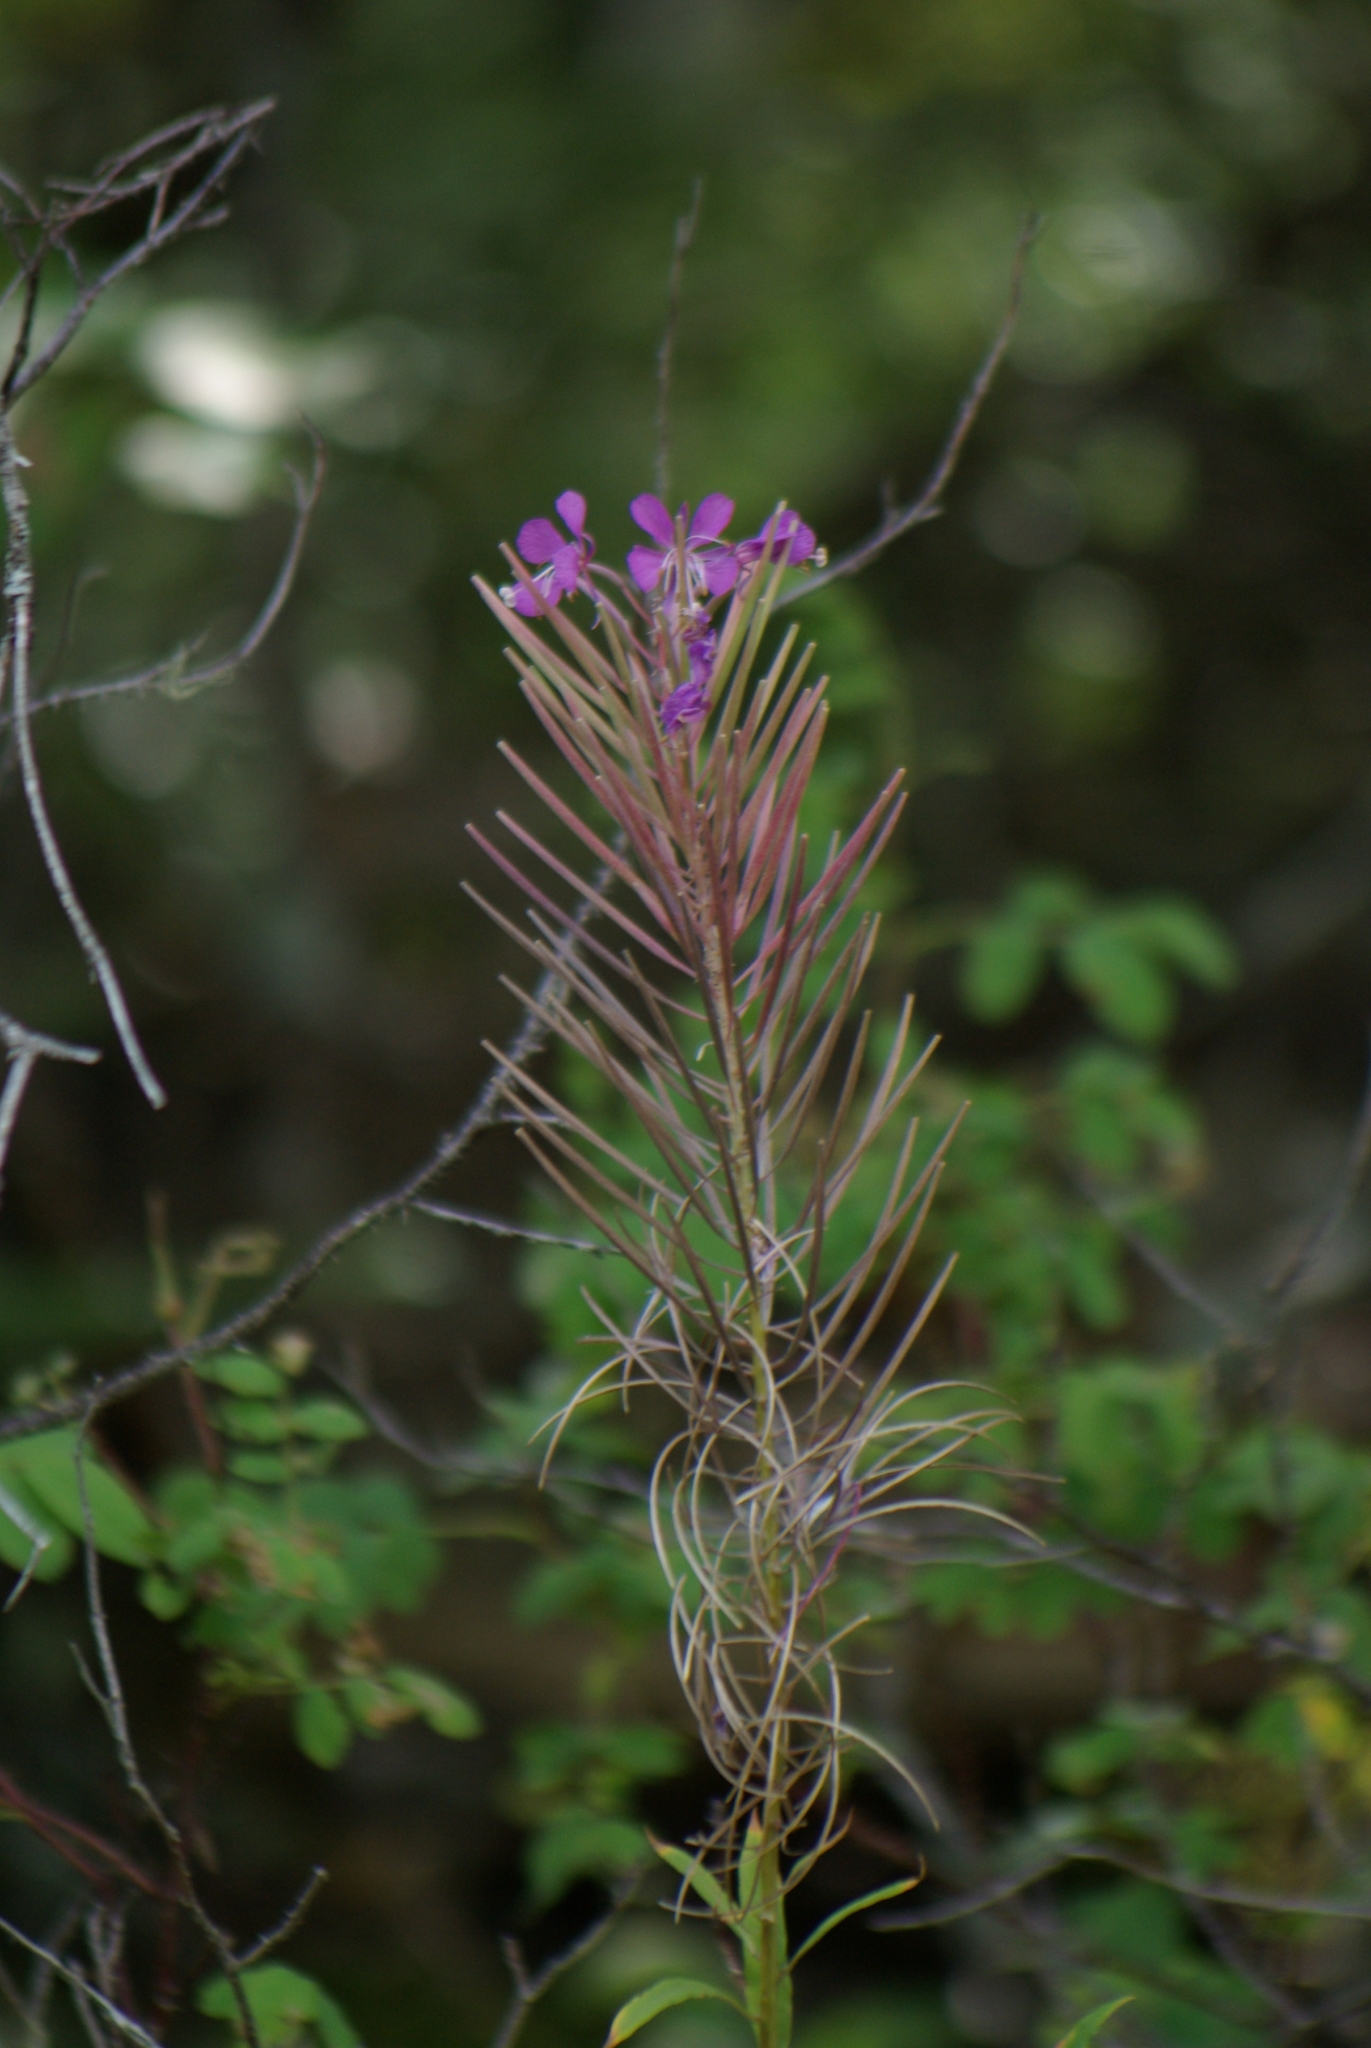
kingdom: Plantae
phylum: Tracheophyta
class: Magnoliopsida
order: Myrtales
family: Onagraceae
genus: Chamaenerion
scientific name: Chamaenerion angustifolium
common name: Fireweed
